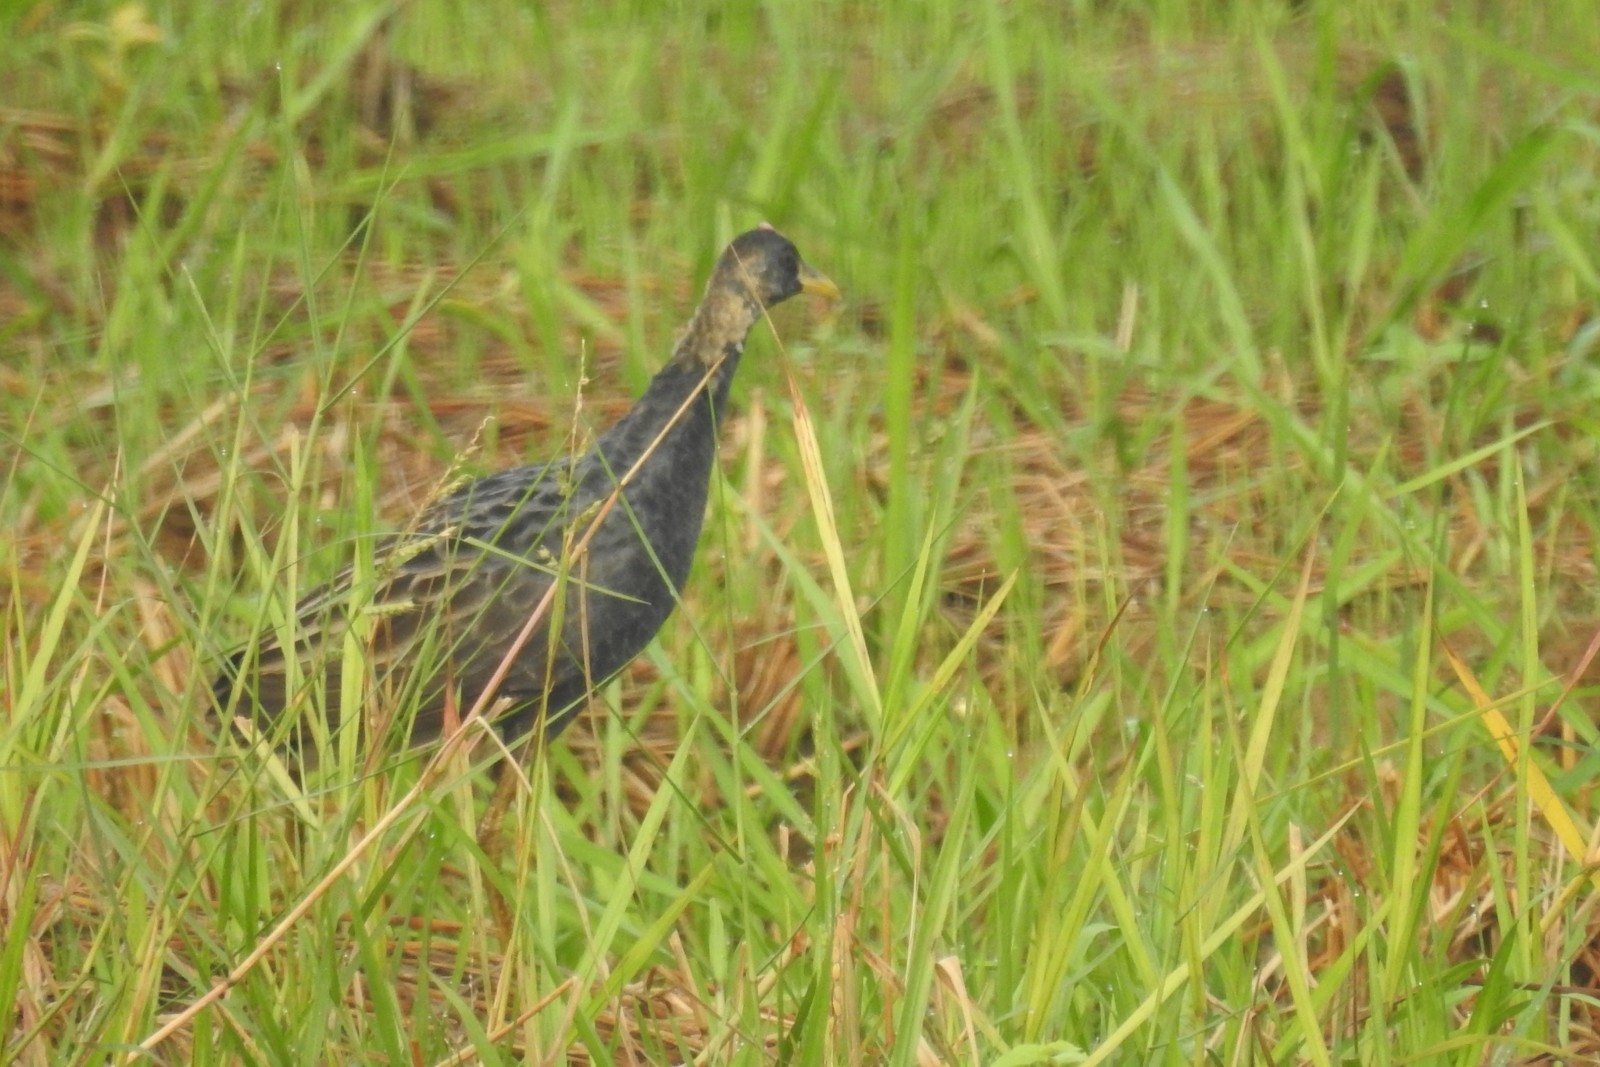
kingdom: Animalia
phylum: Chordata
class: Aves
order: Gruiformes
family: Rallidae
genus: Gallicrex
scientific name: Gallicrex cinerea
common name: Watercock
